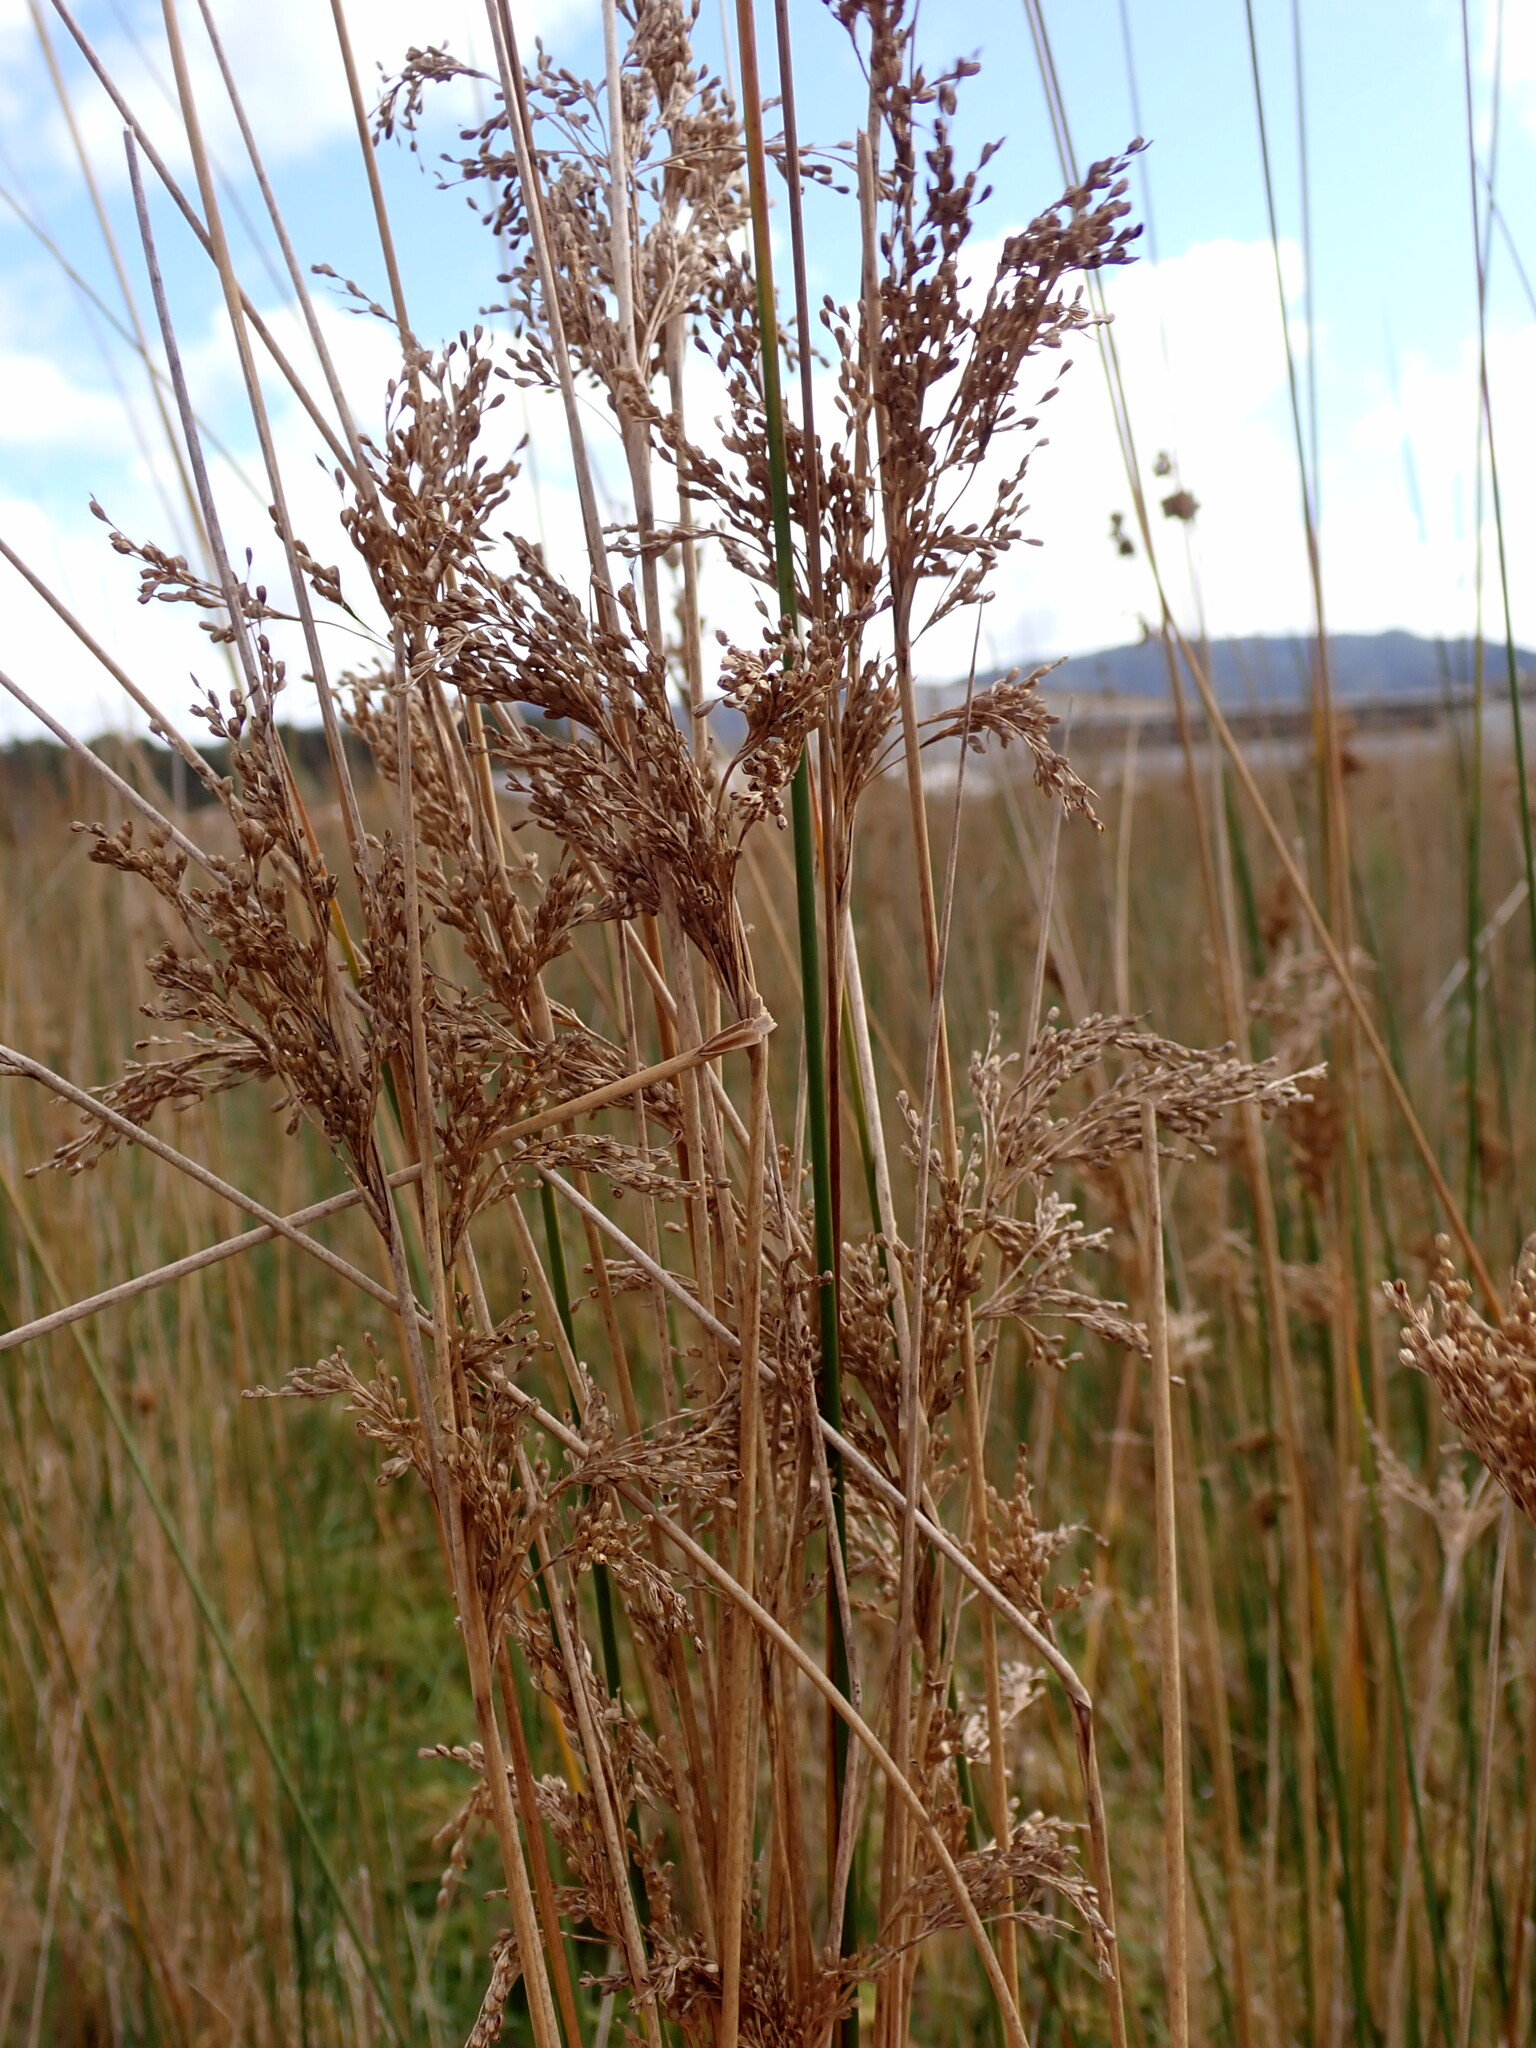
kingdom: Plantae
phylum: Tracheophyta
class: Liliopsida
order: Poales
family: Juncaceae
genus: Juncus
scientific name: Juncus sarophorus
